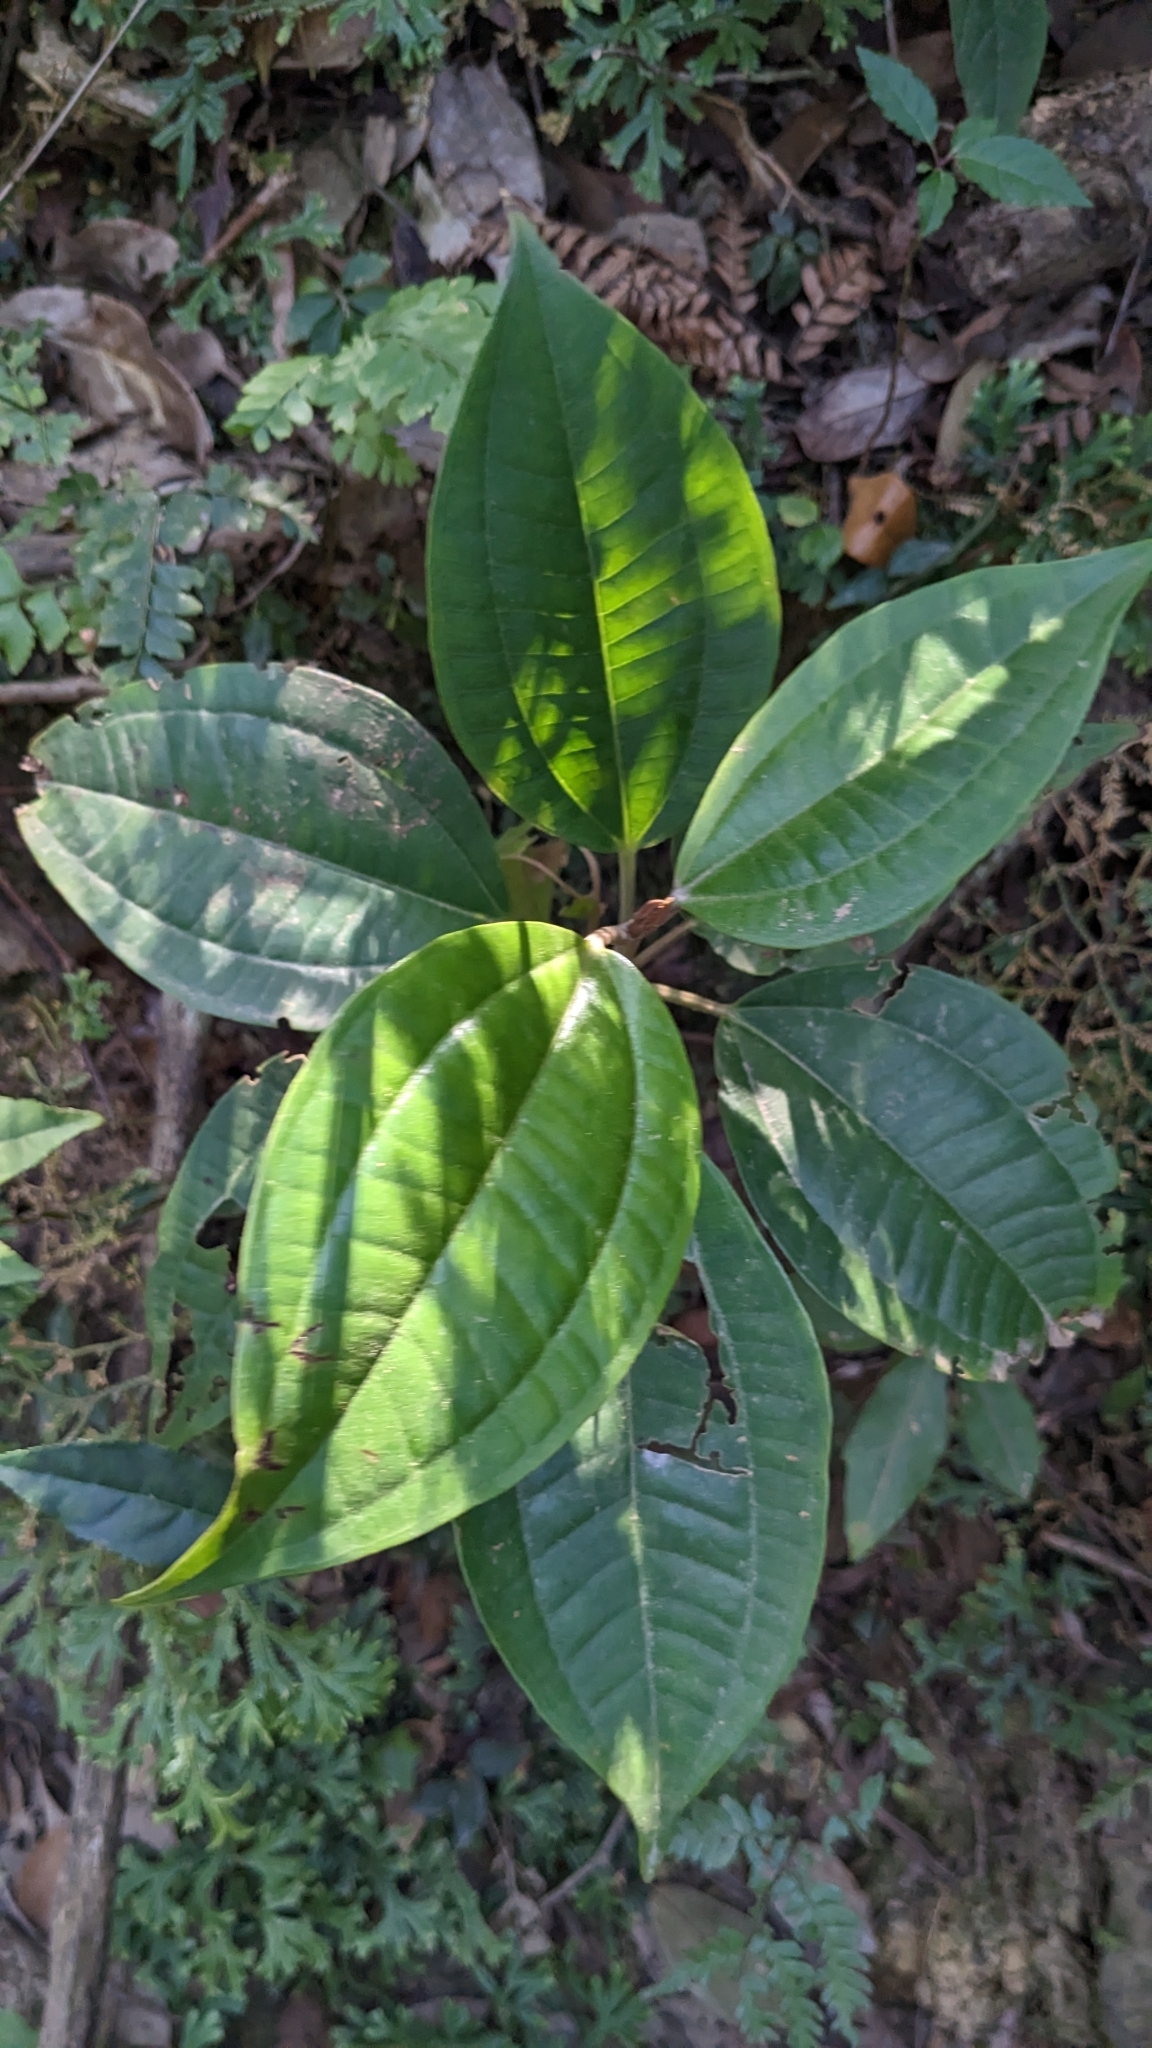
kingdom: Plantae
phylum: Tracheophyta
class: Magnoliopsida
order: Myrtales
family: Melastomataceae
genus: Astronia
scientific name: Astronia ferruginea
